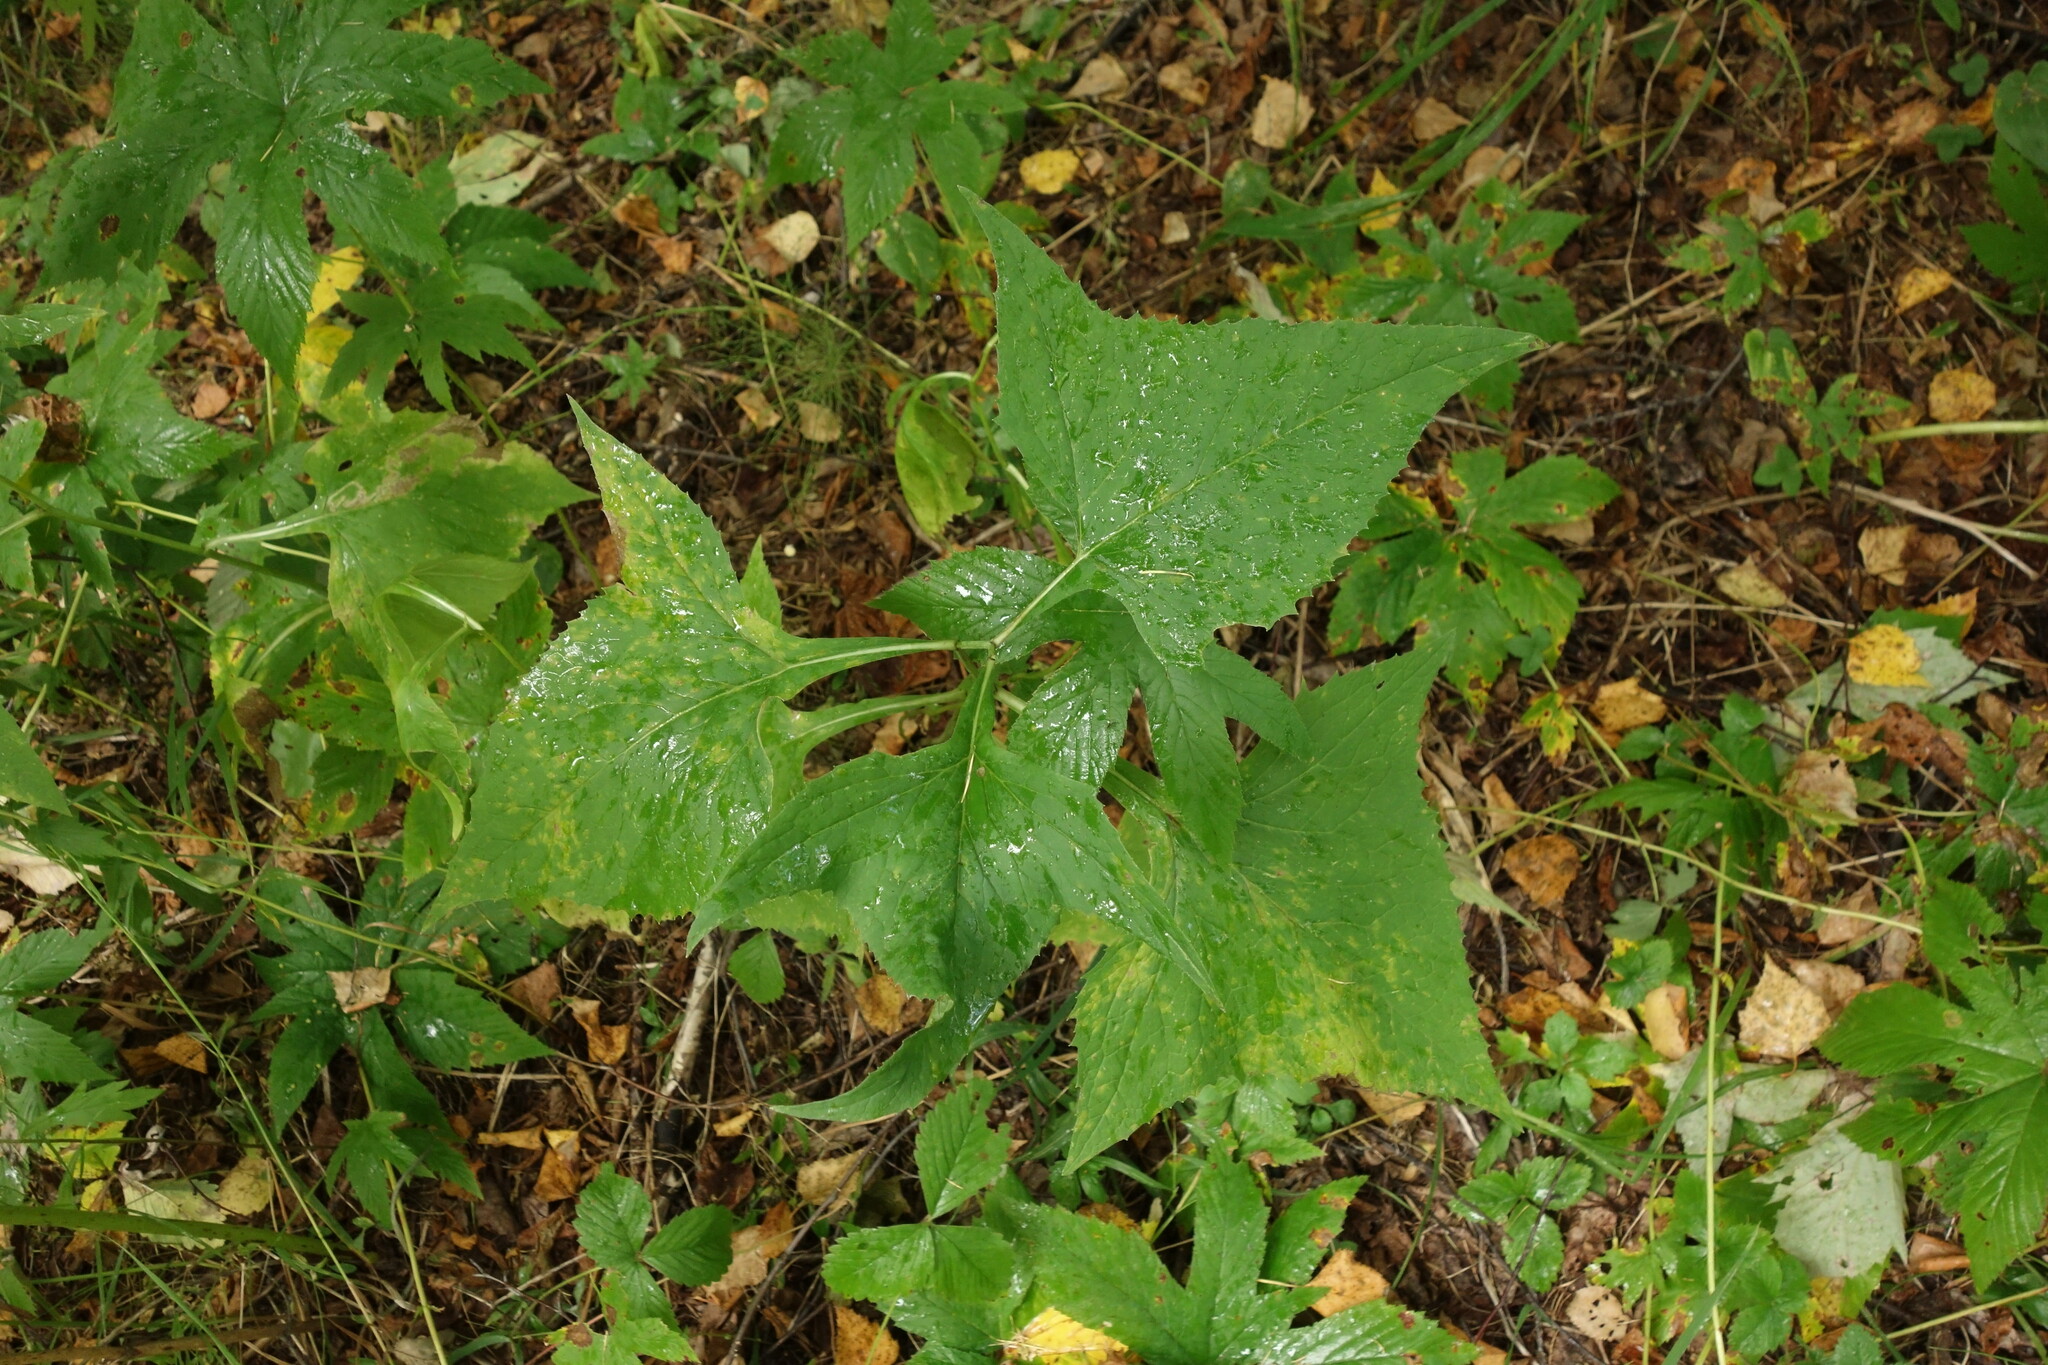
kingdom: Plantae
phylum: Tracheophyta
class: Magnoliopsida
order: Asterales
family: Asteraceae
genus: Parasenecio
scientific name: Parasenecio hastatus
